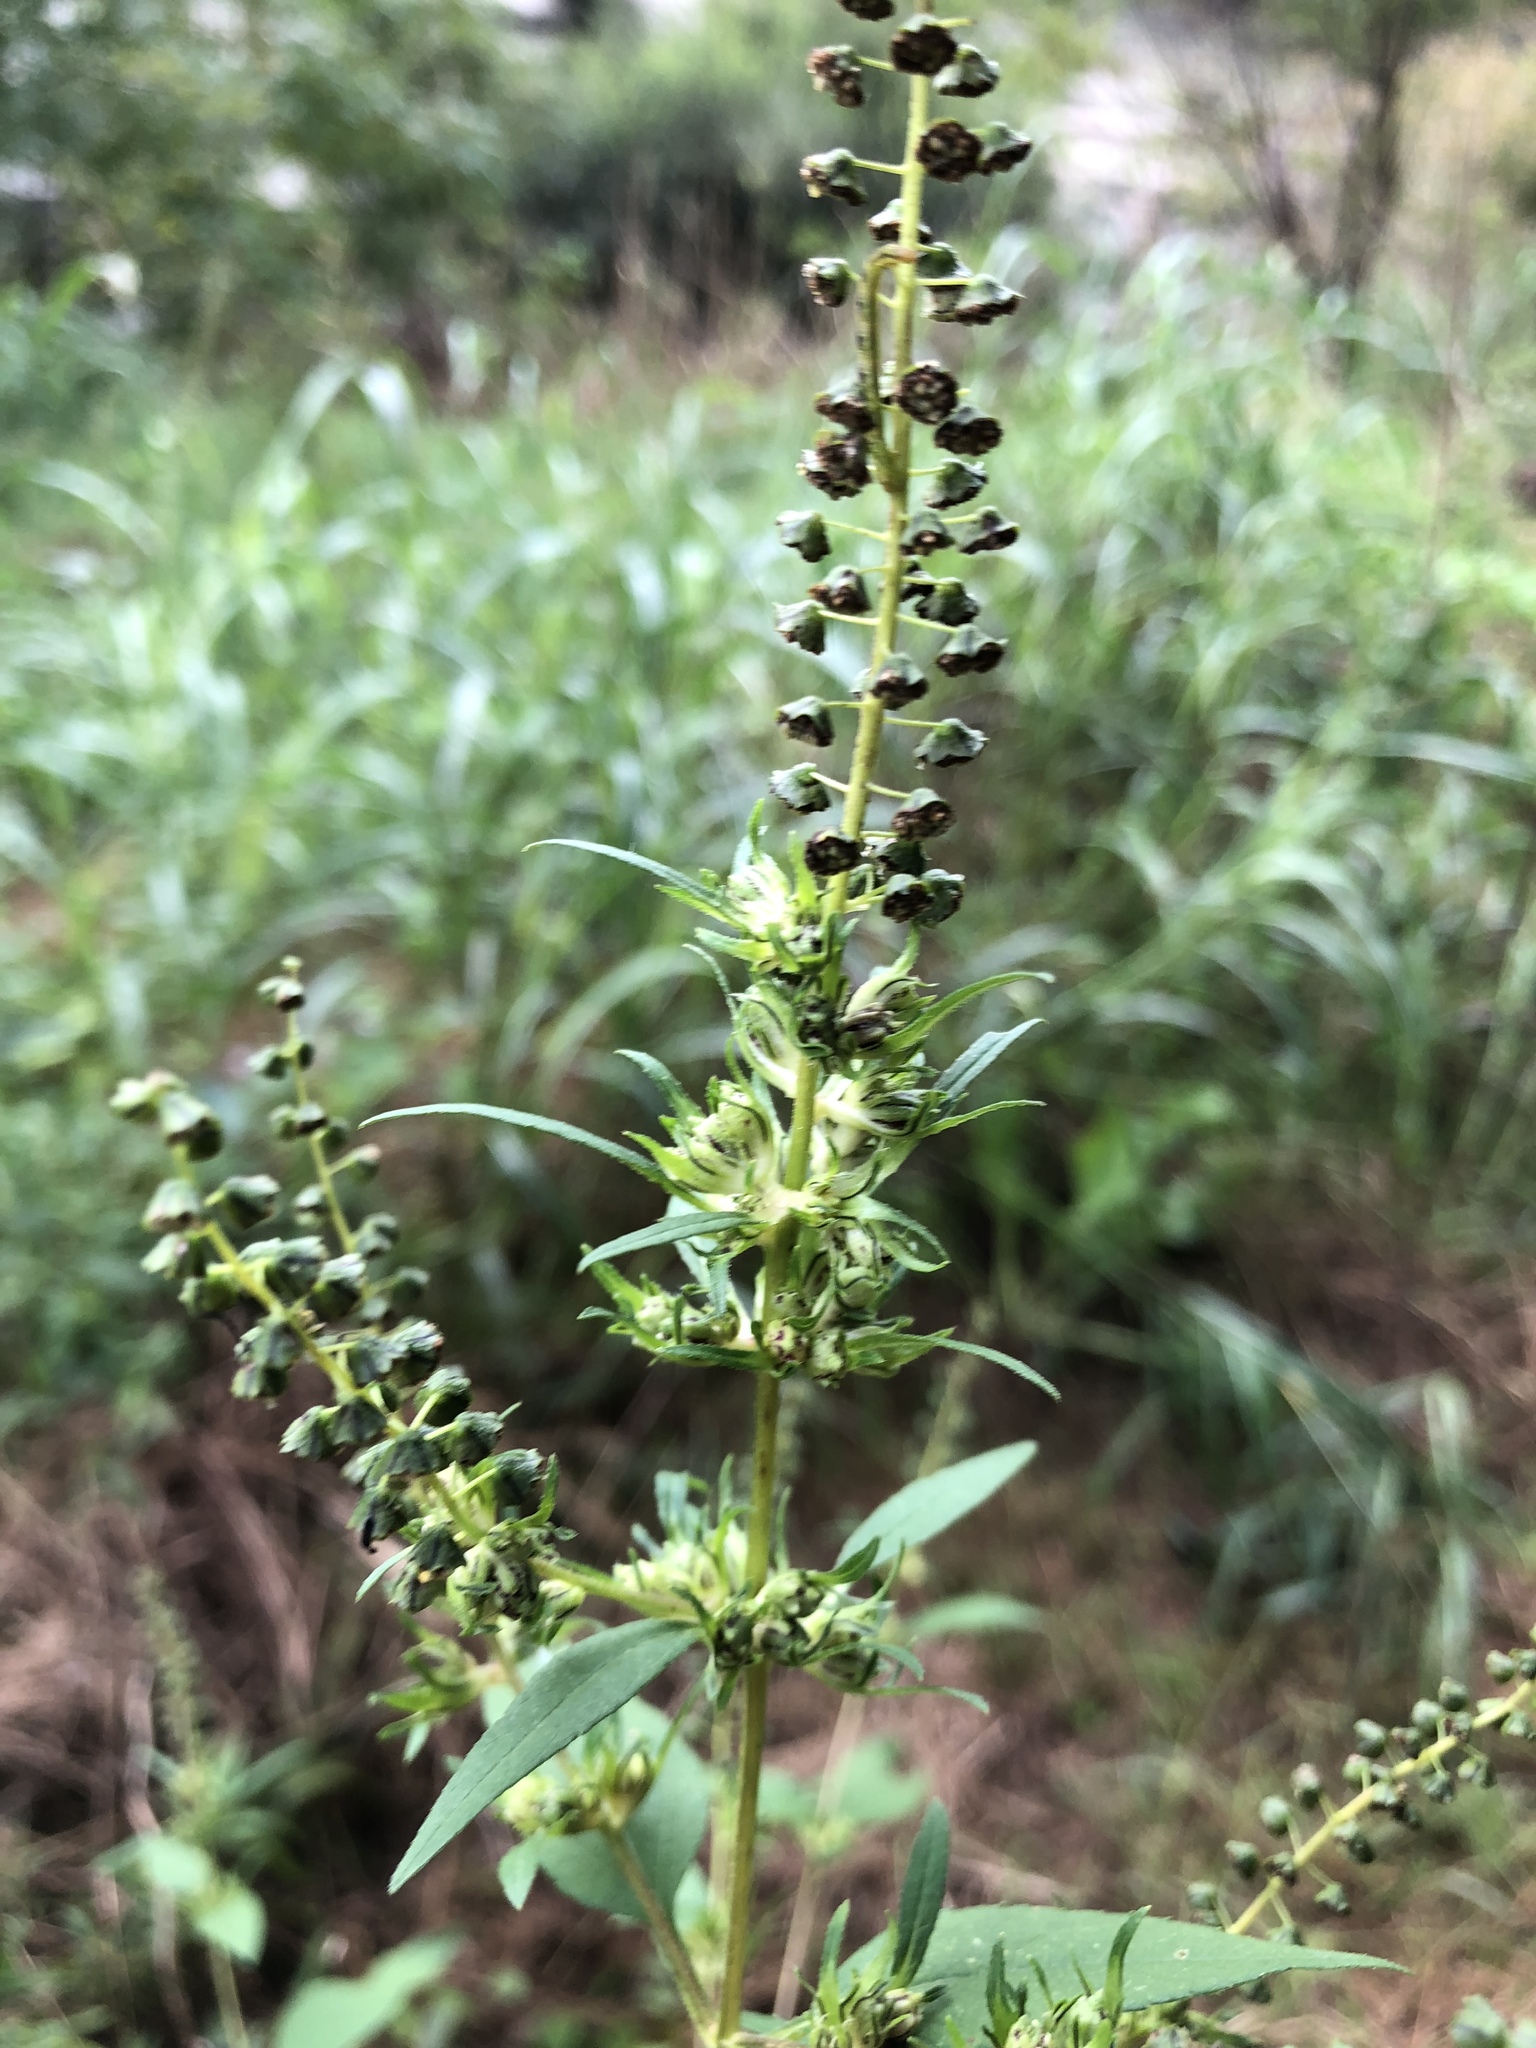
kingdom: Plantae
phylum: Tracheophyta
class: Magnoliopsida
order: Asterales
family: Asteraceae
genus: Ambrosia
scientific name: Ambrosia trifida
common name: Giant ragweed
